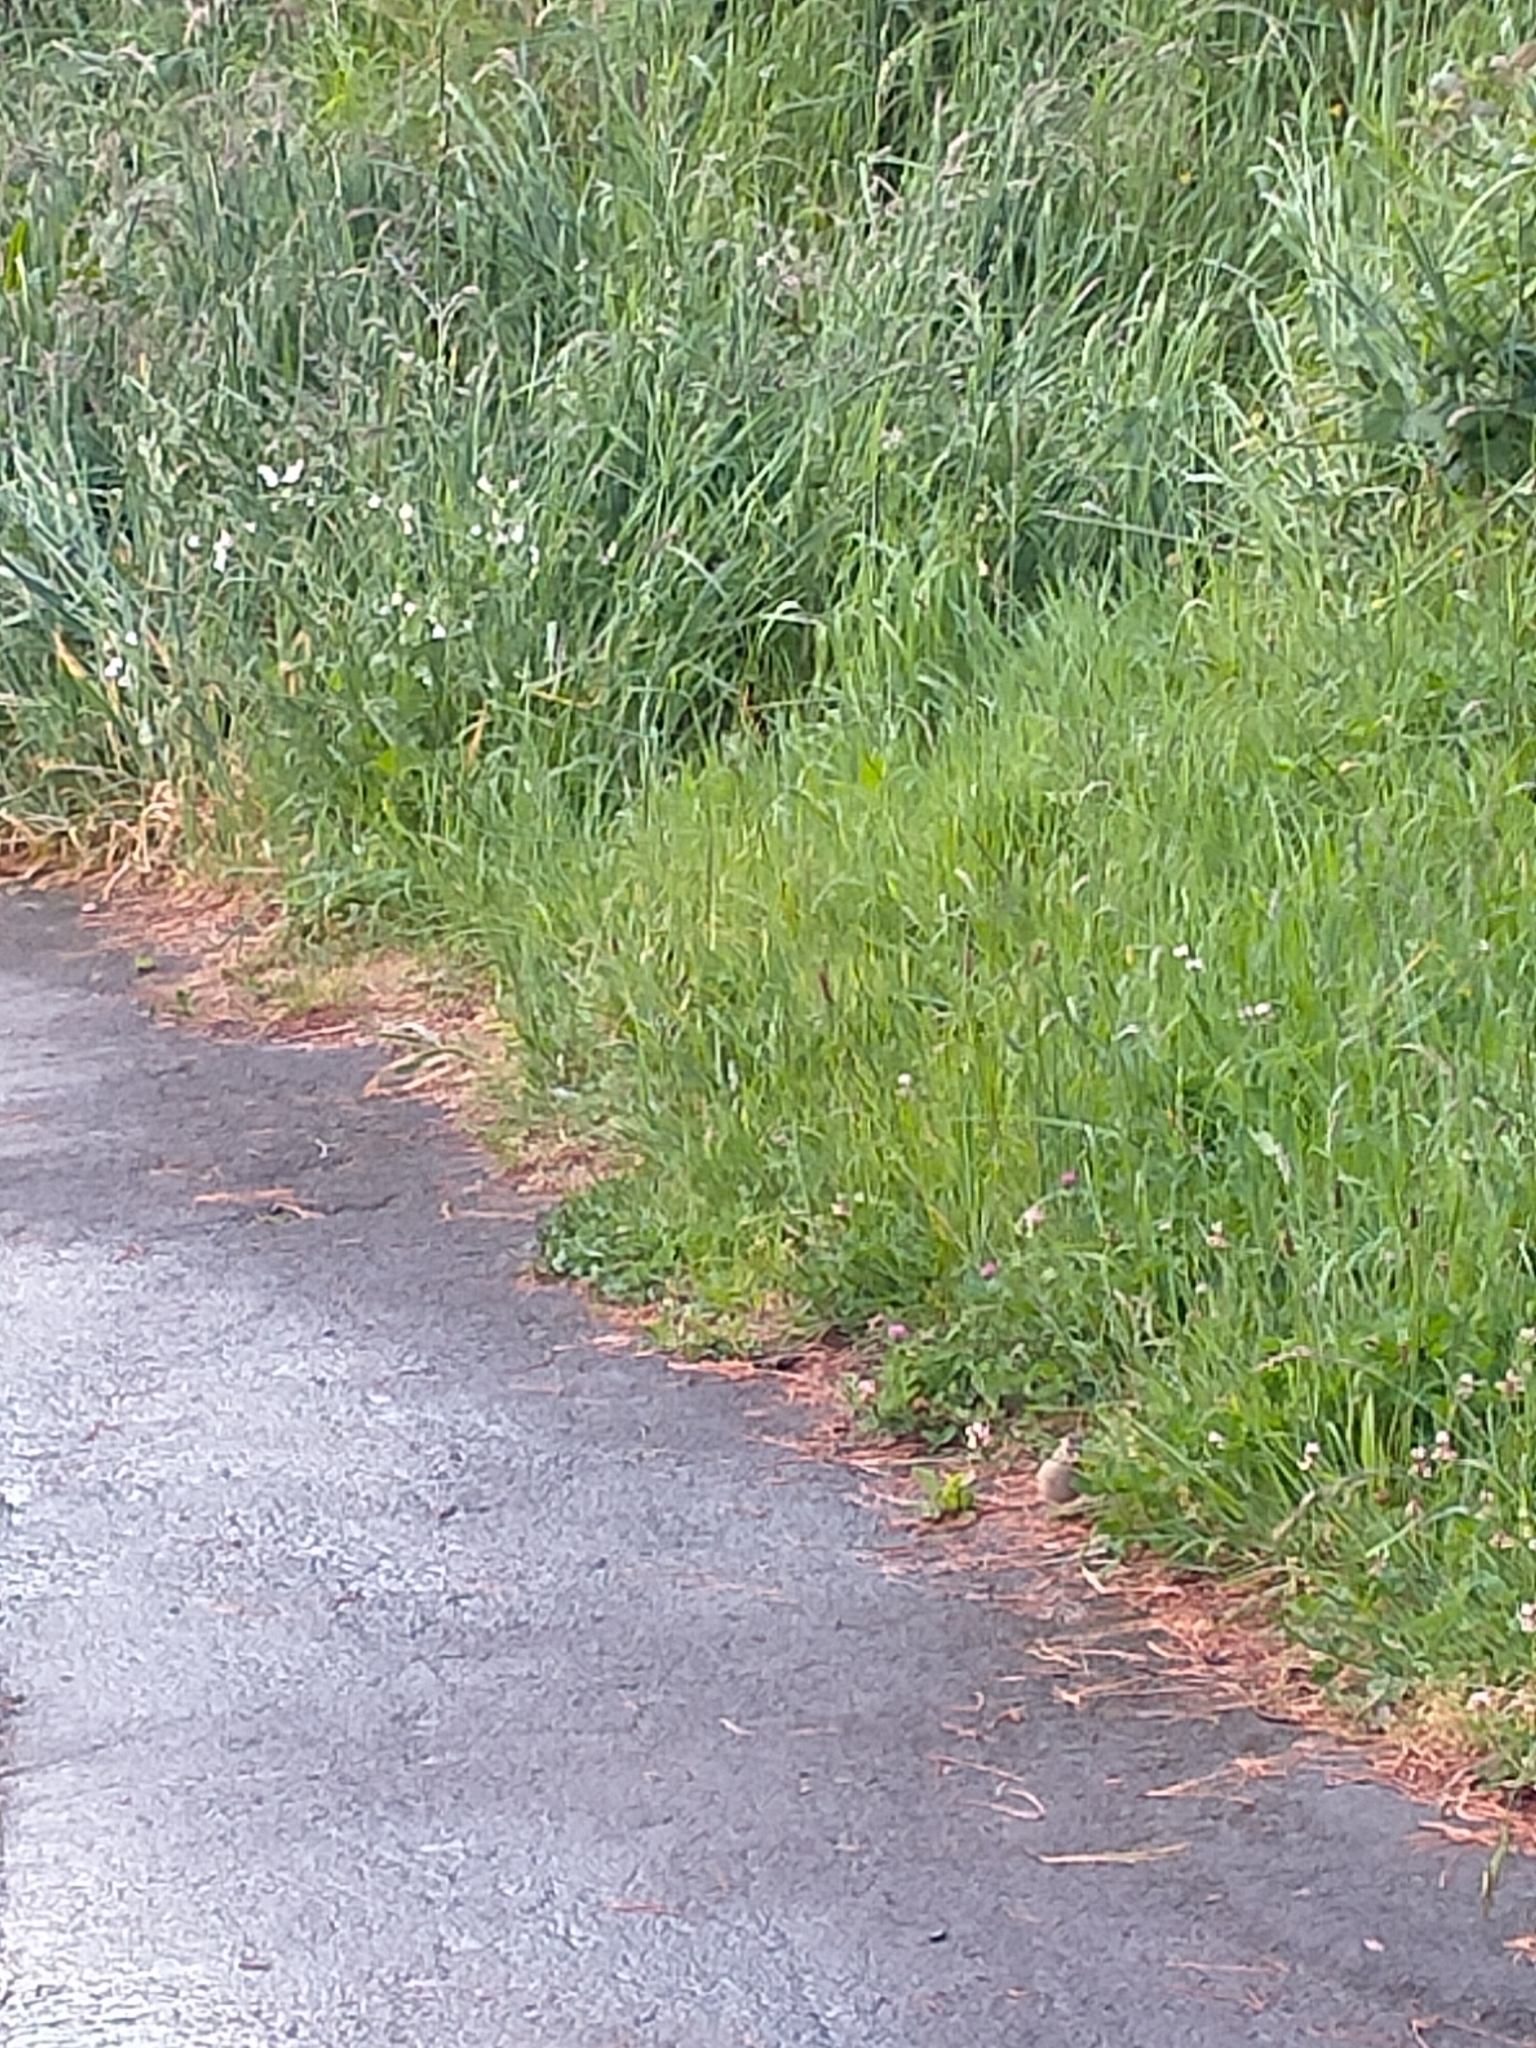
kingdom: Animalia
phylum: Chordata
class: Aves
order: Passeriformes
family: Fringillidae
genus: Fringilla
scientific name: Fringilla coelebs
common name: Common chaffinch
